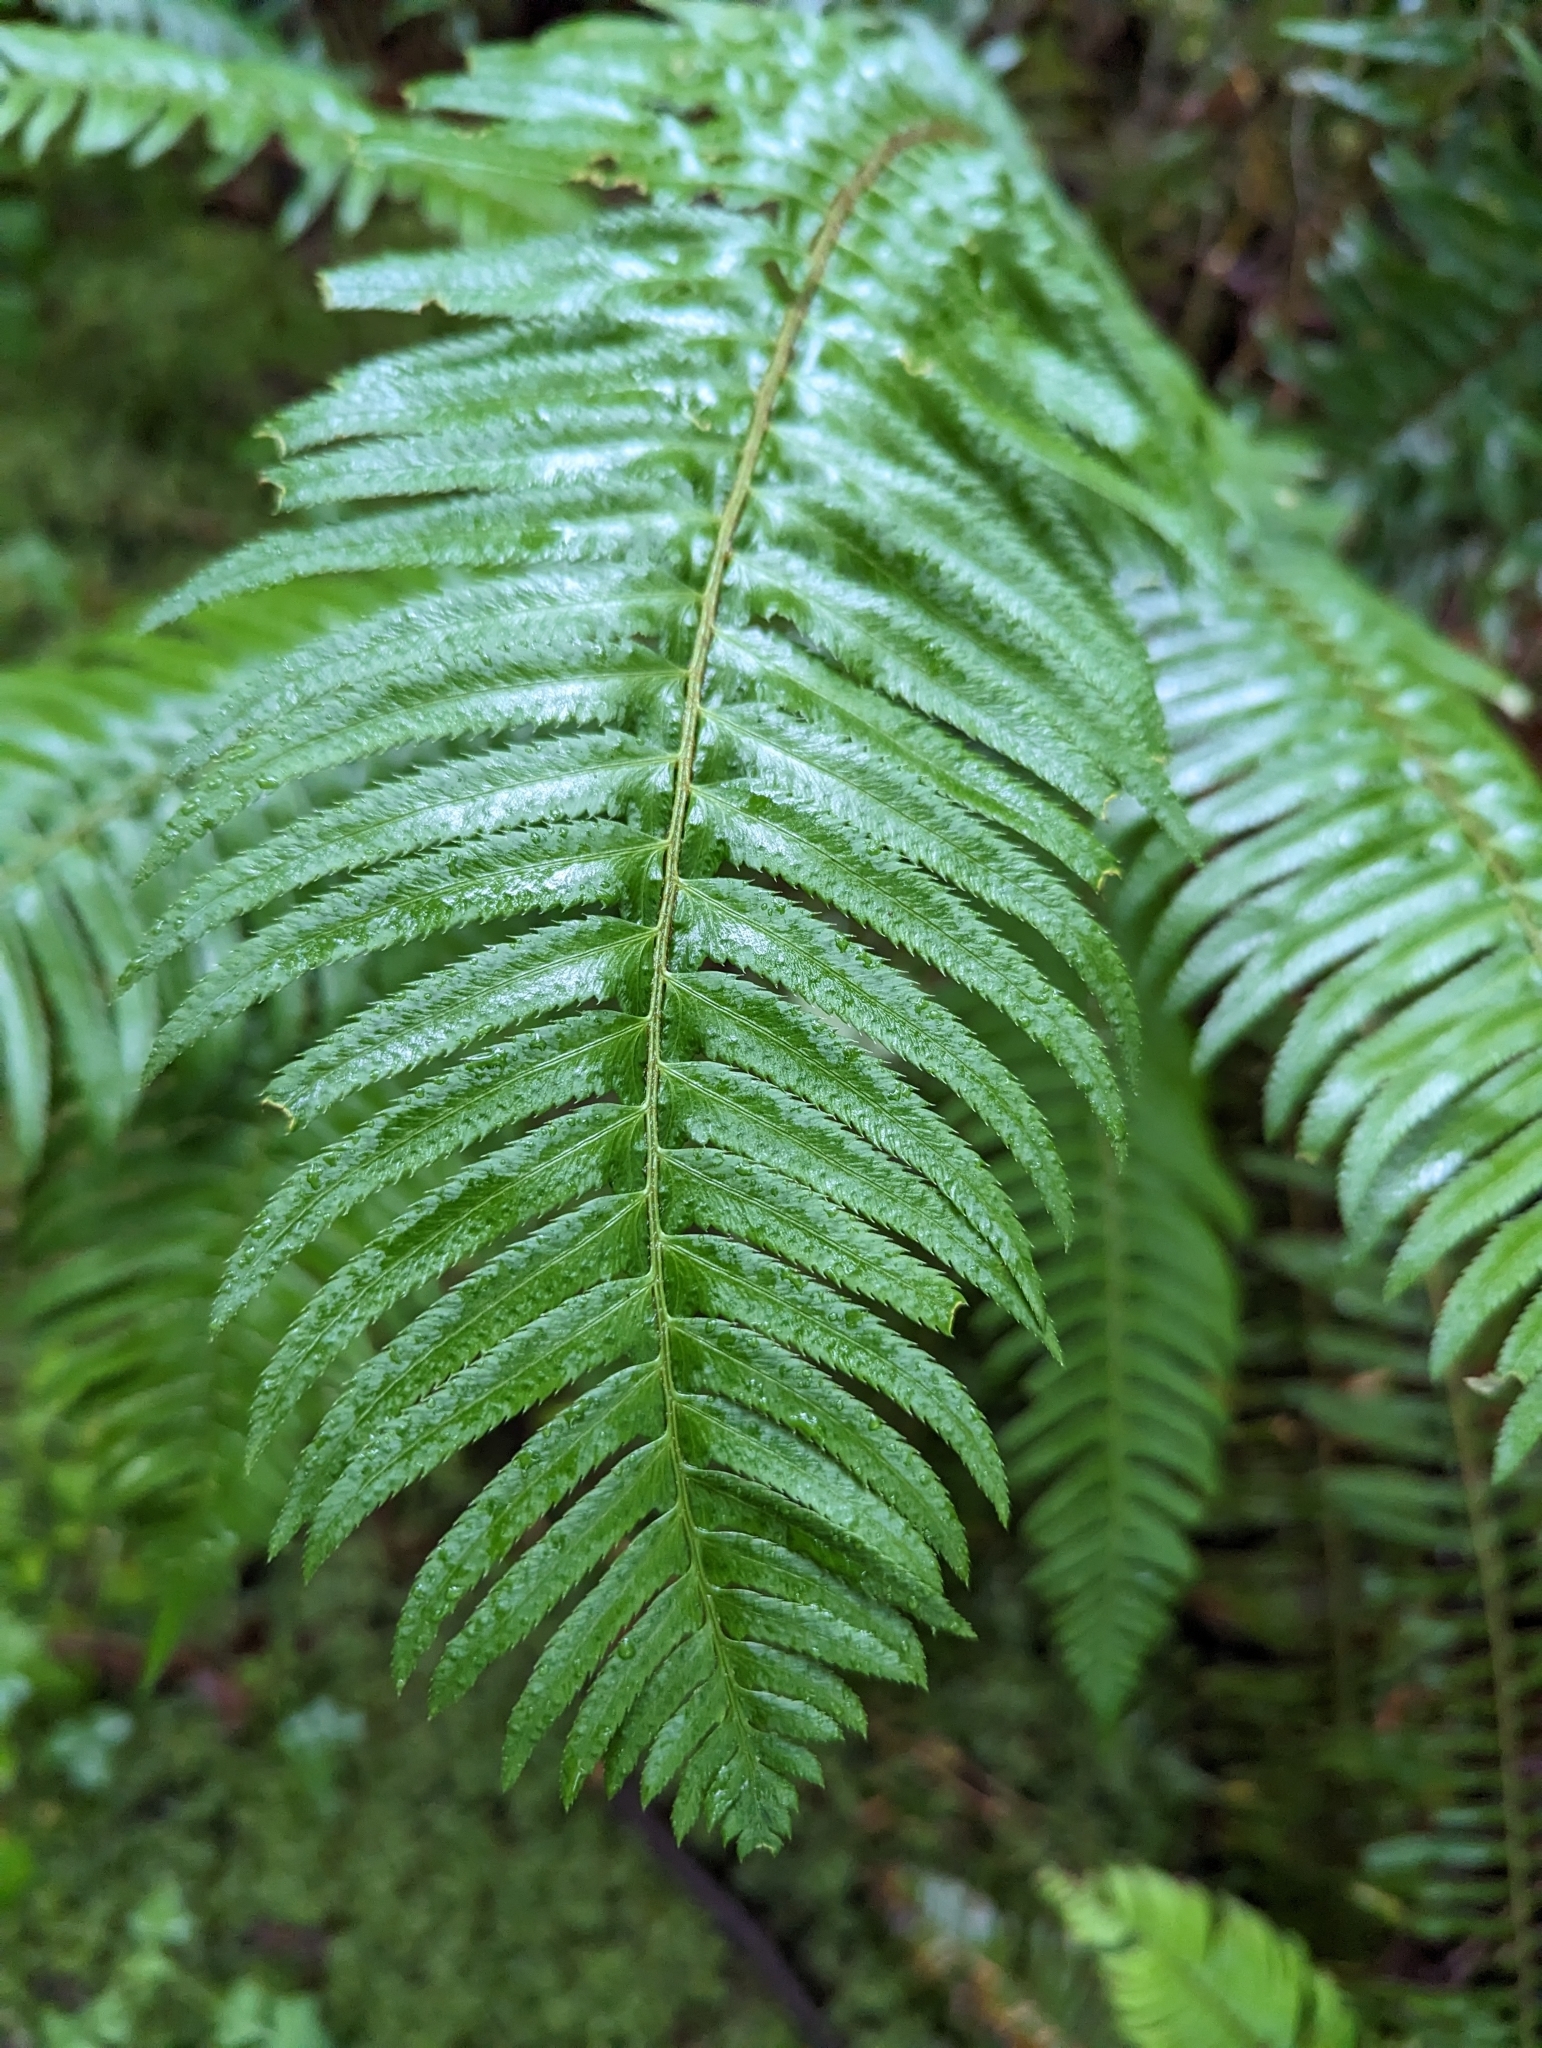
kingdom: Plantae
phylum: Tracheophyta
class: Polypodiopsida
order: Polypodiales
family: Dryopteridaceae
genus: Polystichum
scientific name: Polystichum munitum
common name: Western sword-fern
